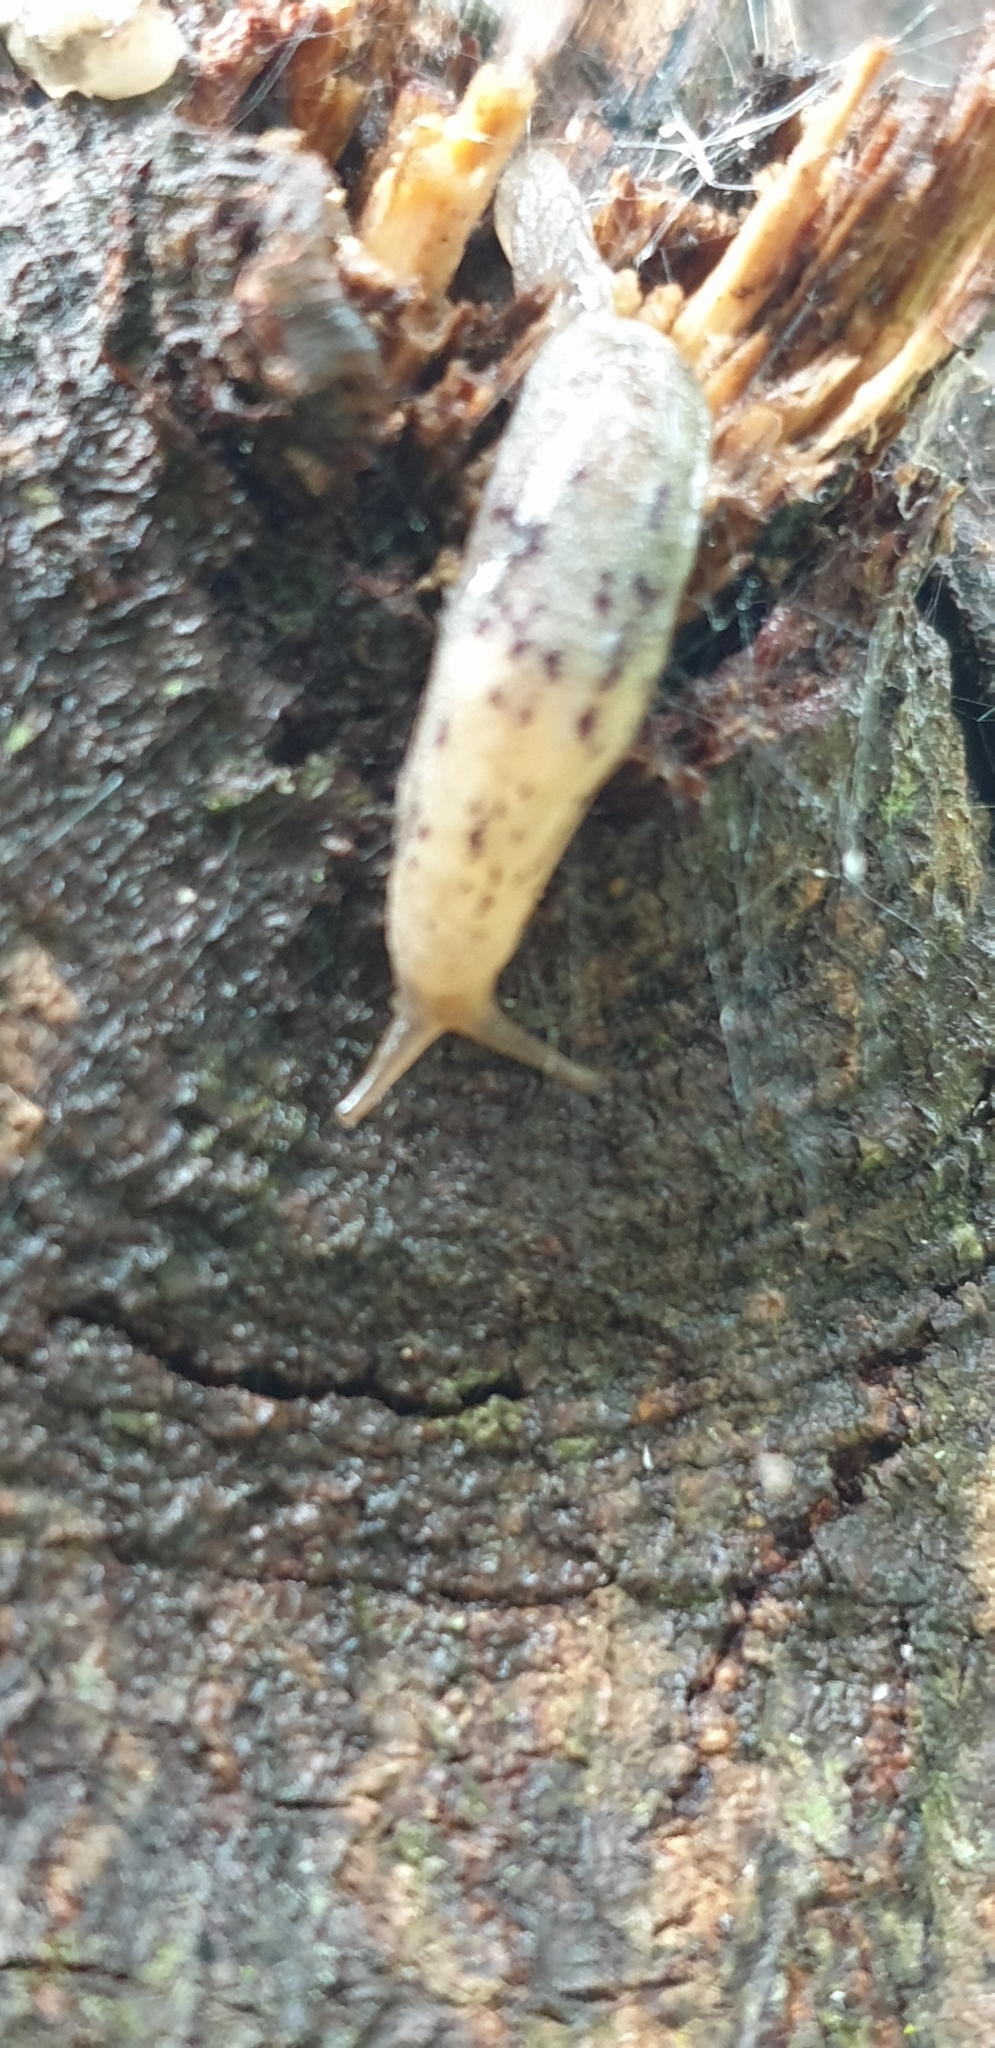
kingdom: Animalia
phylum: Mollusca
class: Gastropoda
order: Stylommatophora
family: Cystopeltidae
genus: Cystopelta
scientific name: Cystopelta purpurea
